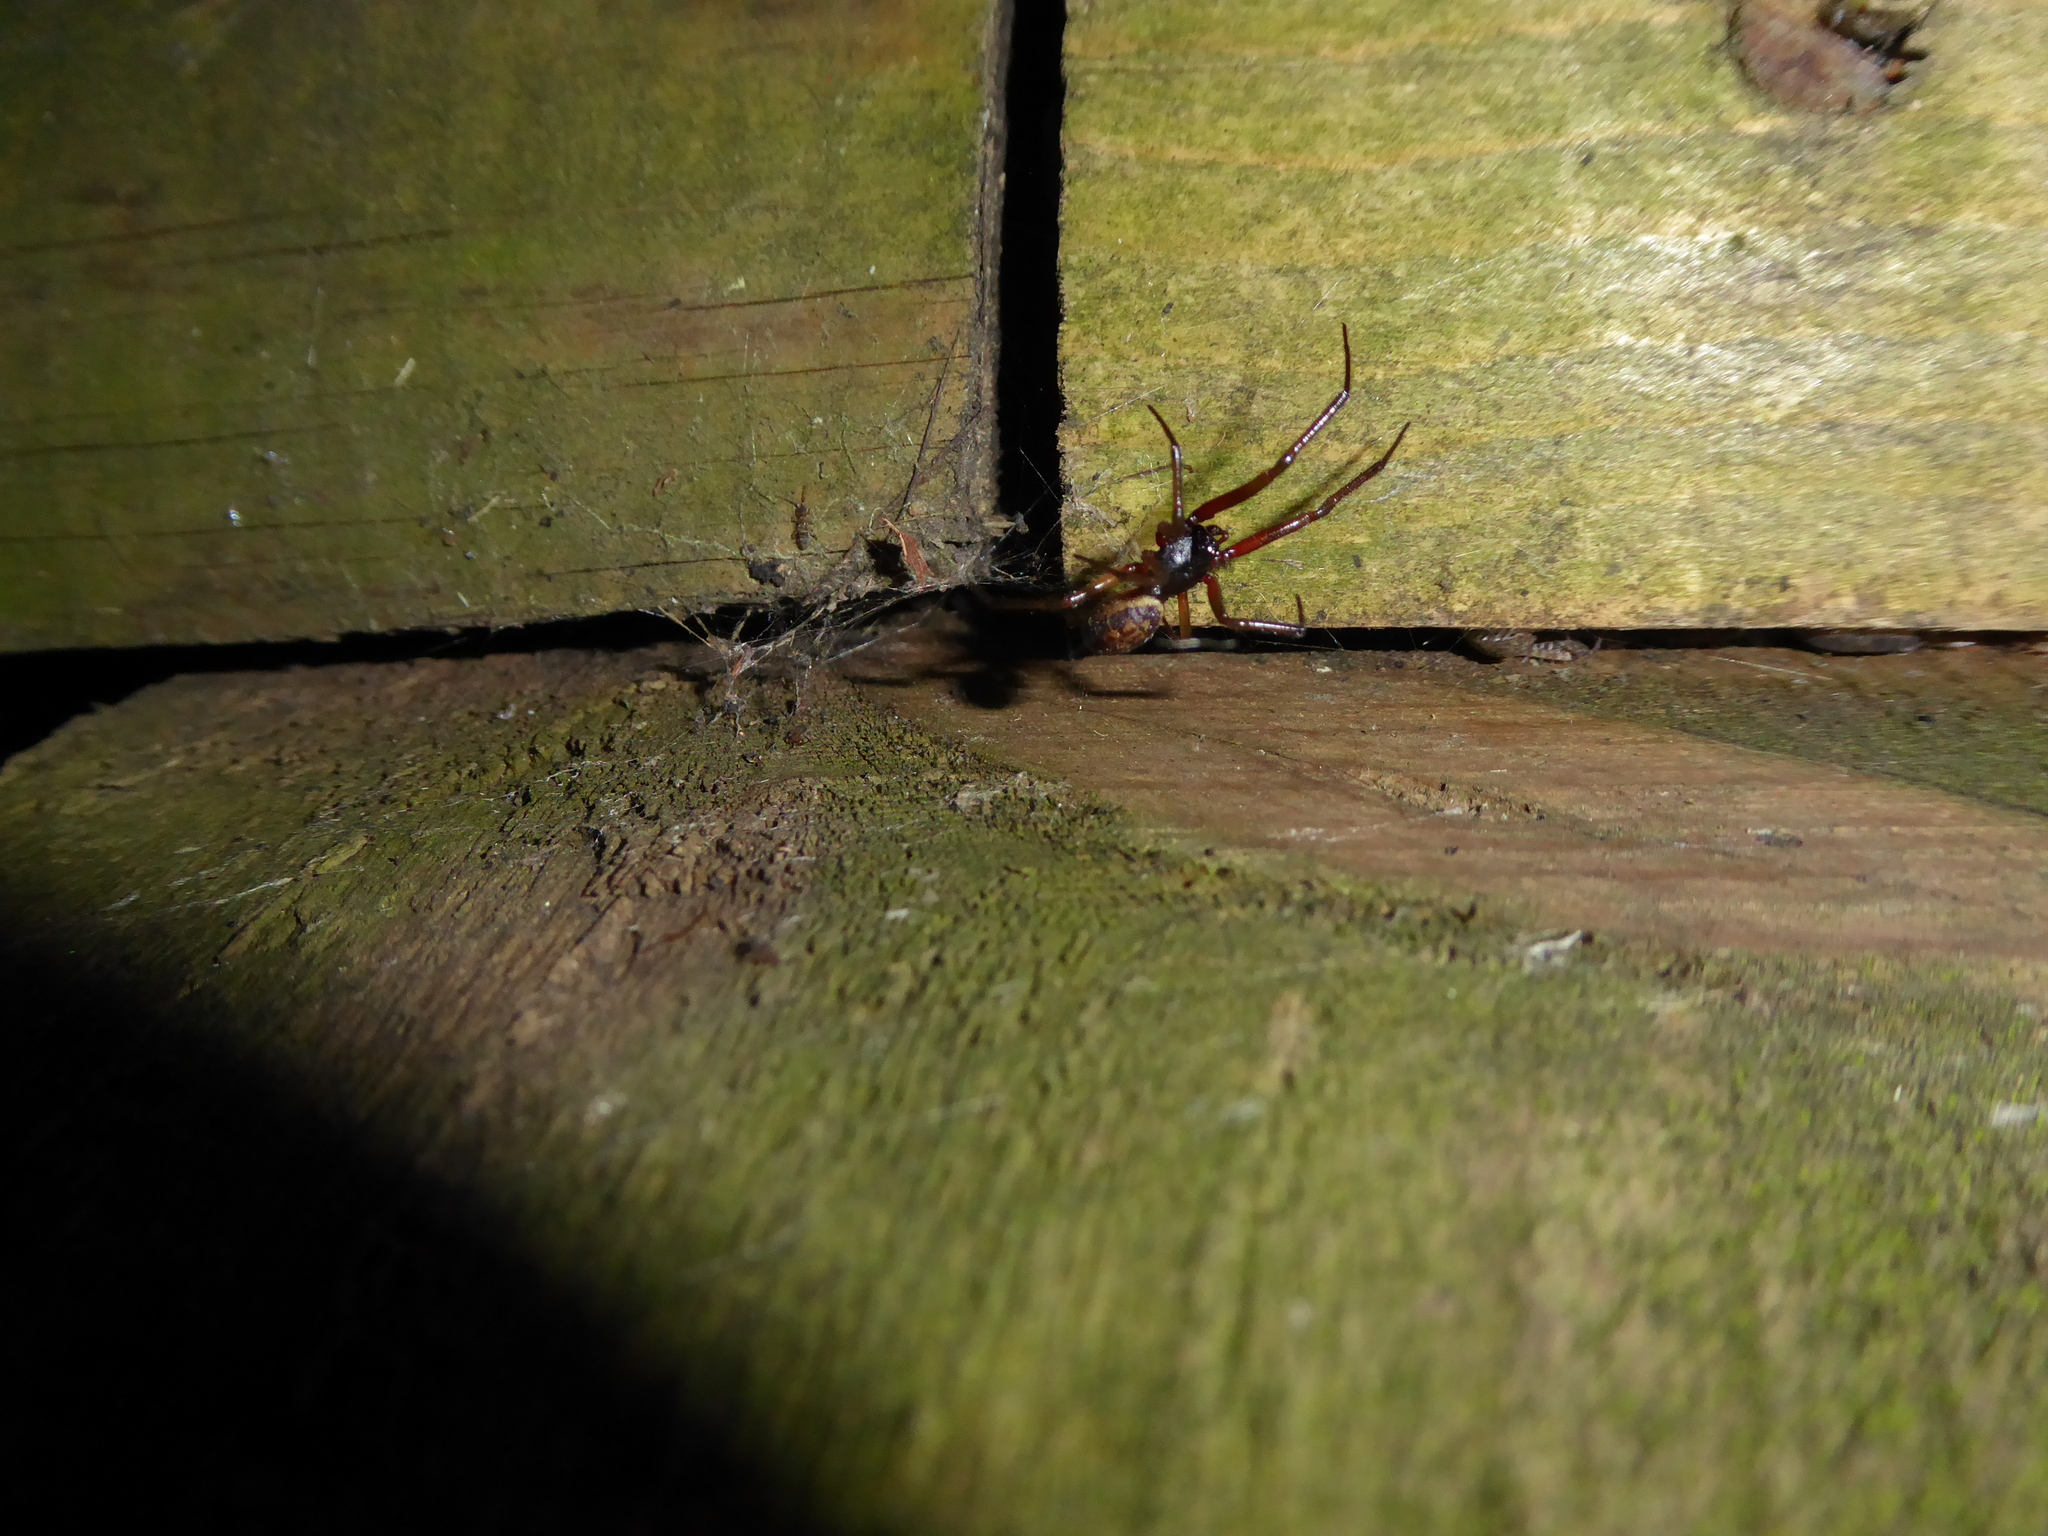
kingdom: Animalia
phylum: Arthropoda
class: Arachnida
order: Araneae
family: Theridiidae
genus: Steatoda
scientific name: Steatoda nobilis
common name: Cobweb weaver
